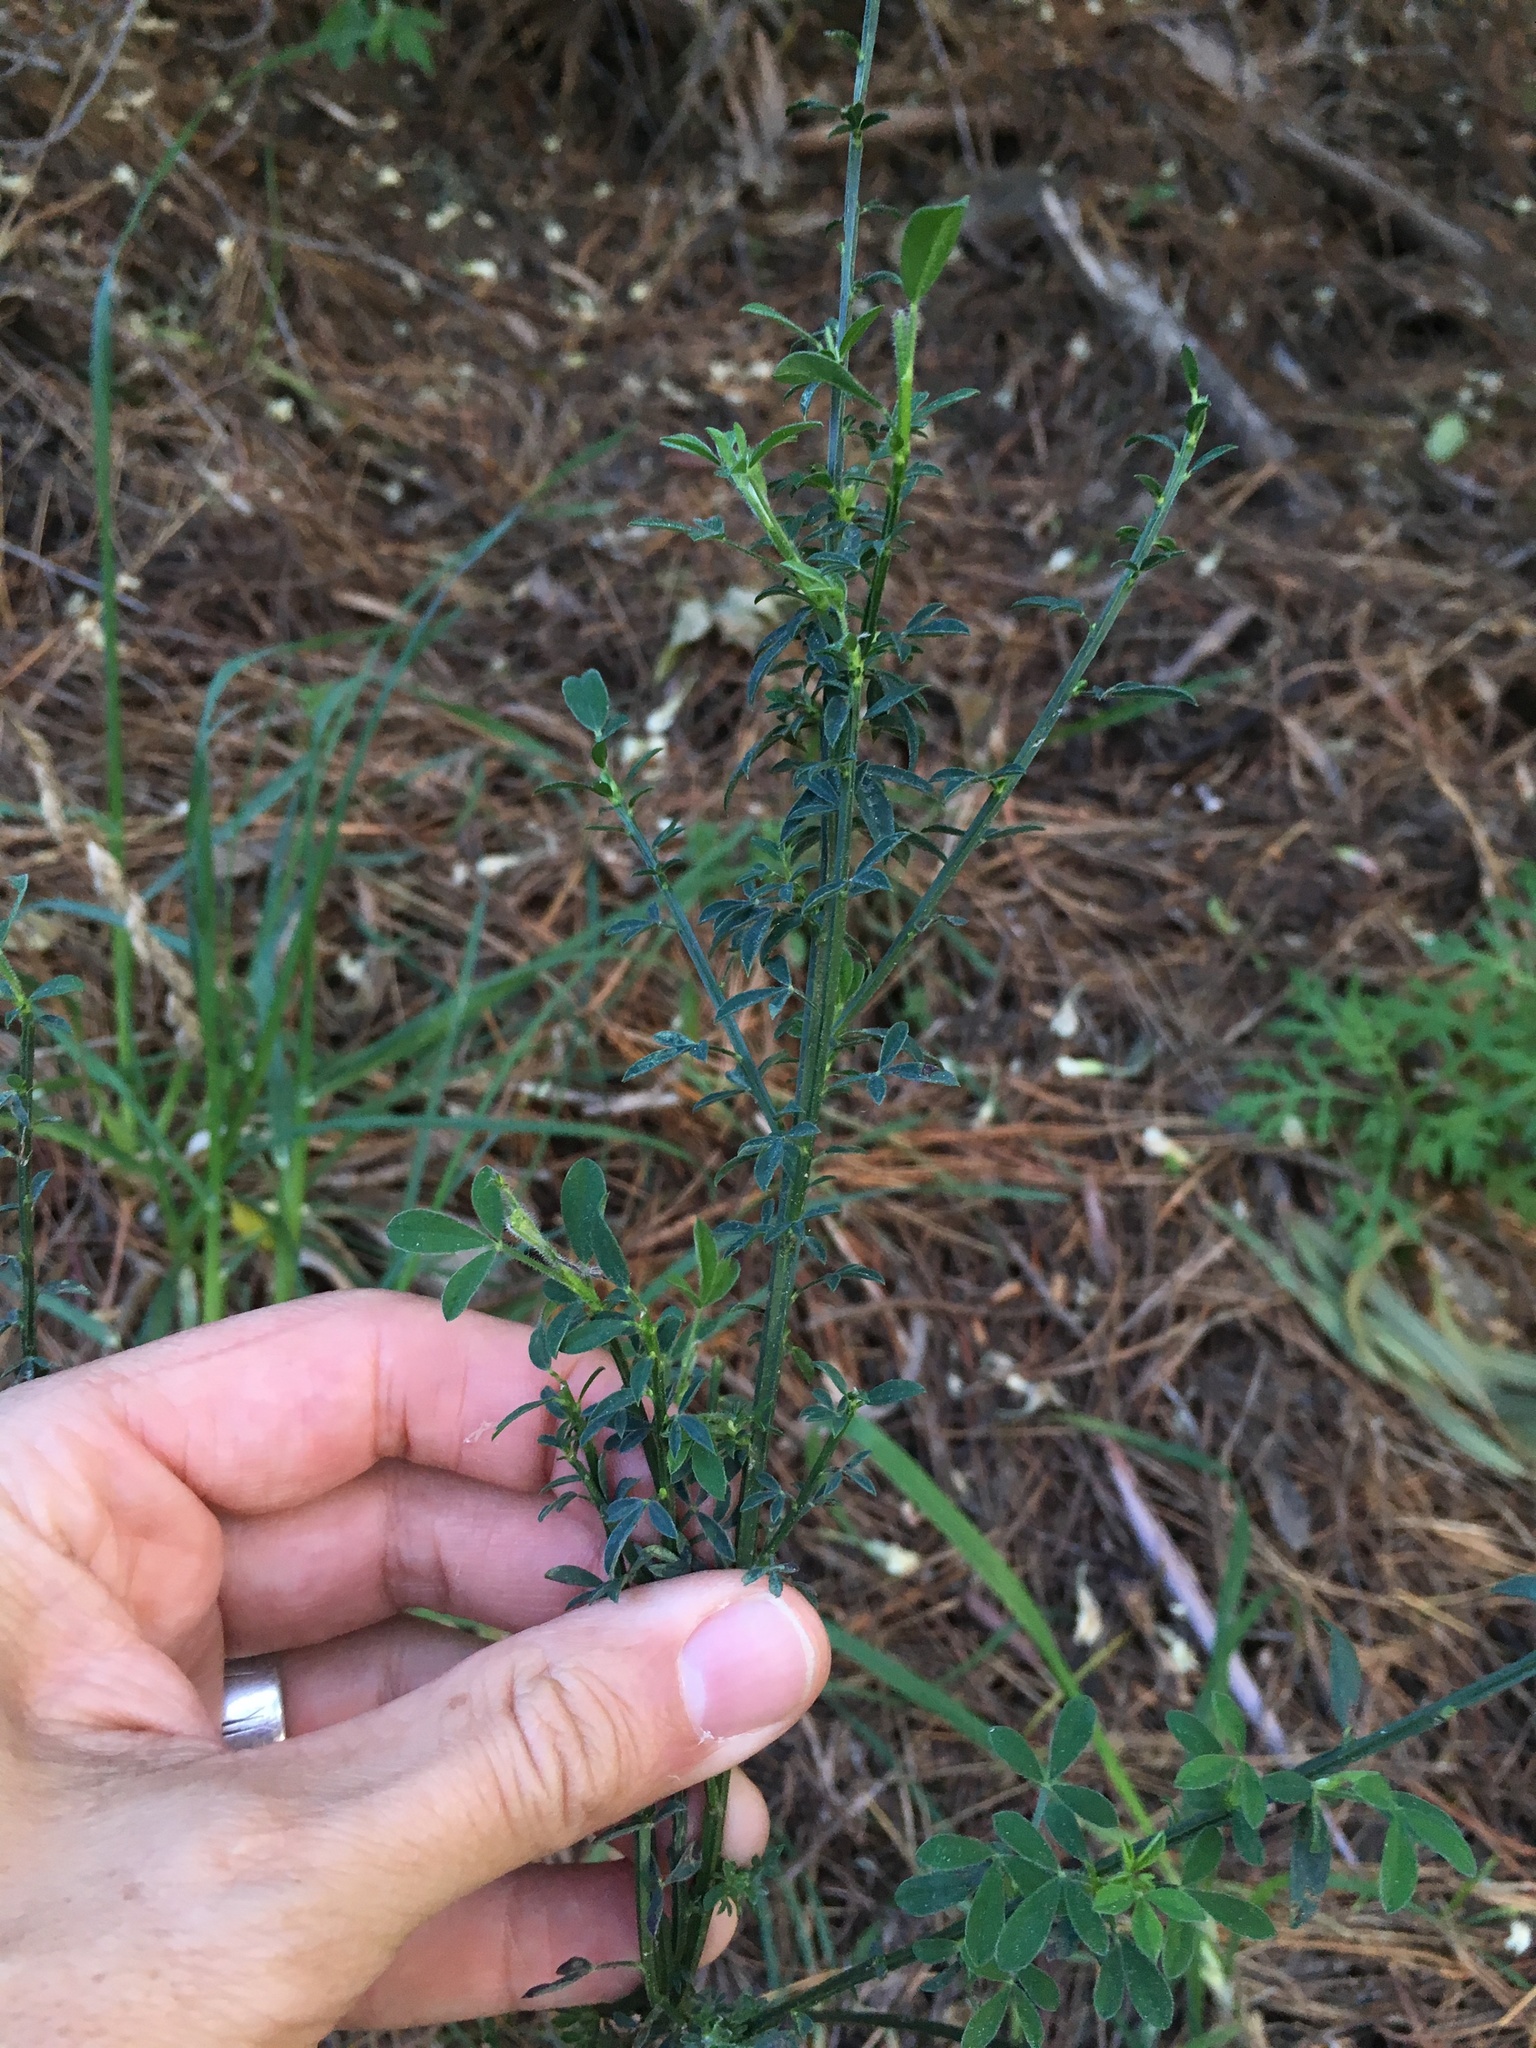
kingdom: Plantae
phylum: Tracheophyta
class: Magnoliopsida
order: Fabales
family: Fabaceae
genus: Cytisus
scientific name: Cytisus scoparius
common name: Scotch broom
